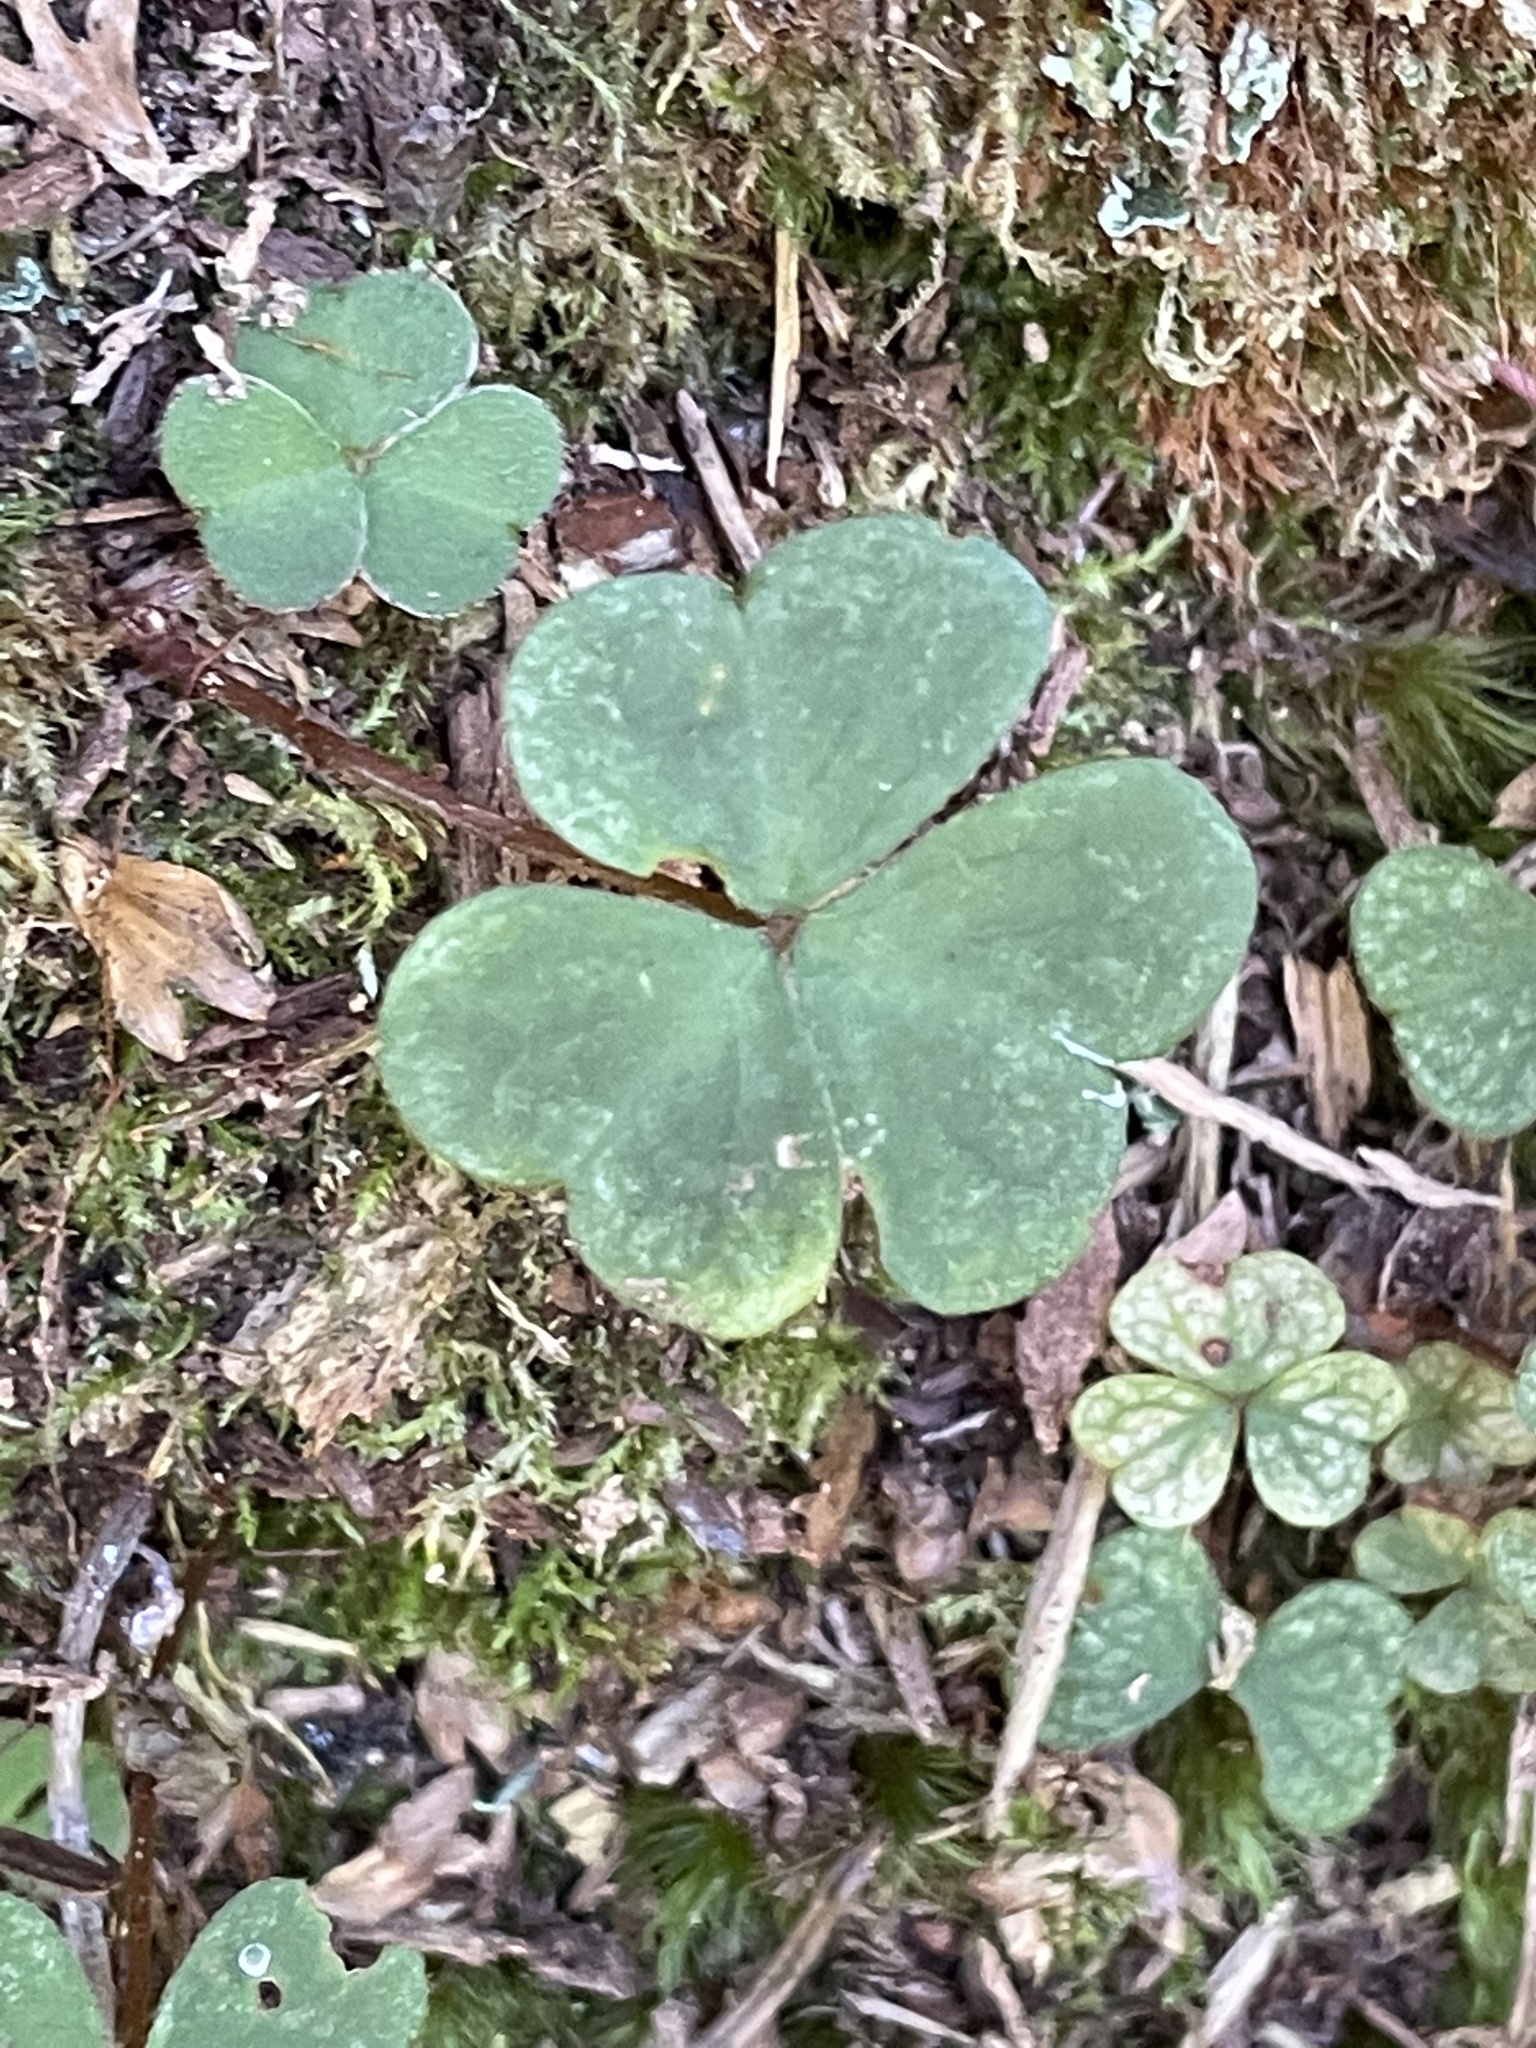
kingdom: Plantae
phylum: Tracheophyta
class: Magnoliopsida
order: Oxalidales
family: Oxalidaceae
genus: Oxalis
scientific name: Oxalis montana
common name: American wood-sorrel
